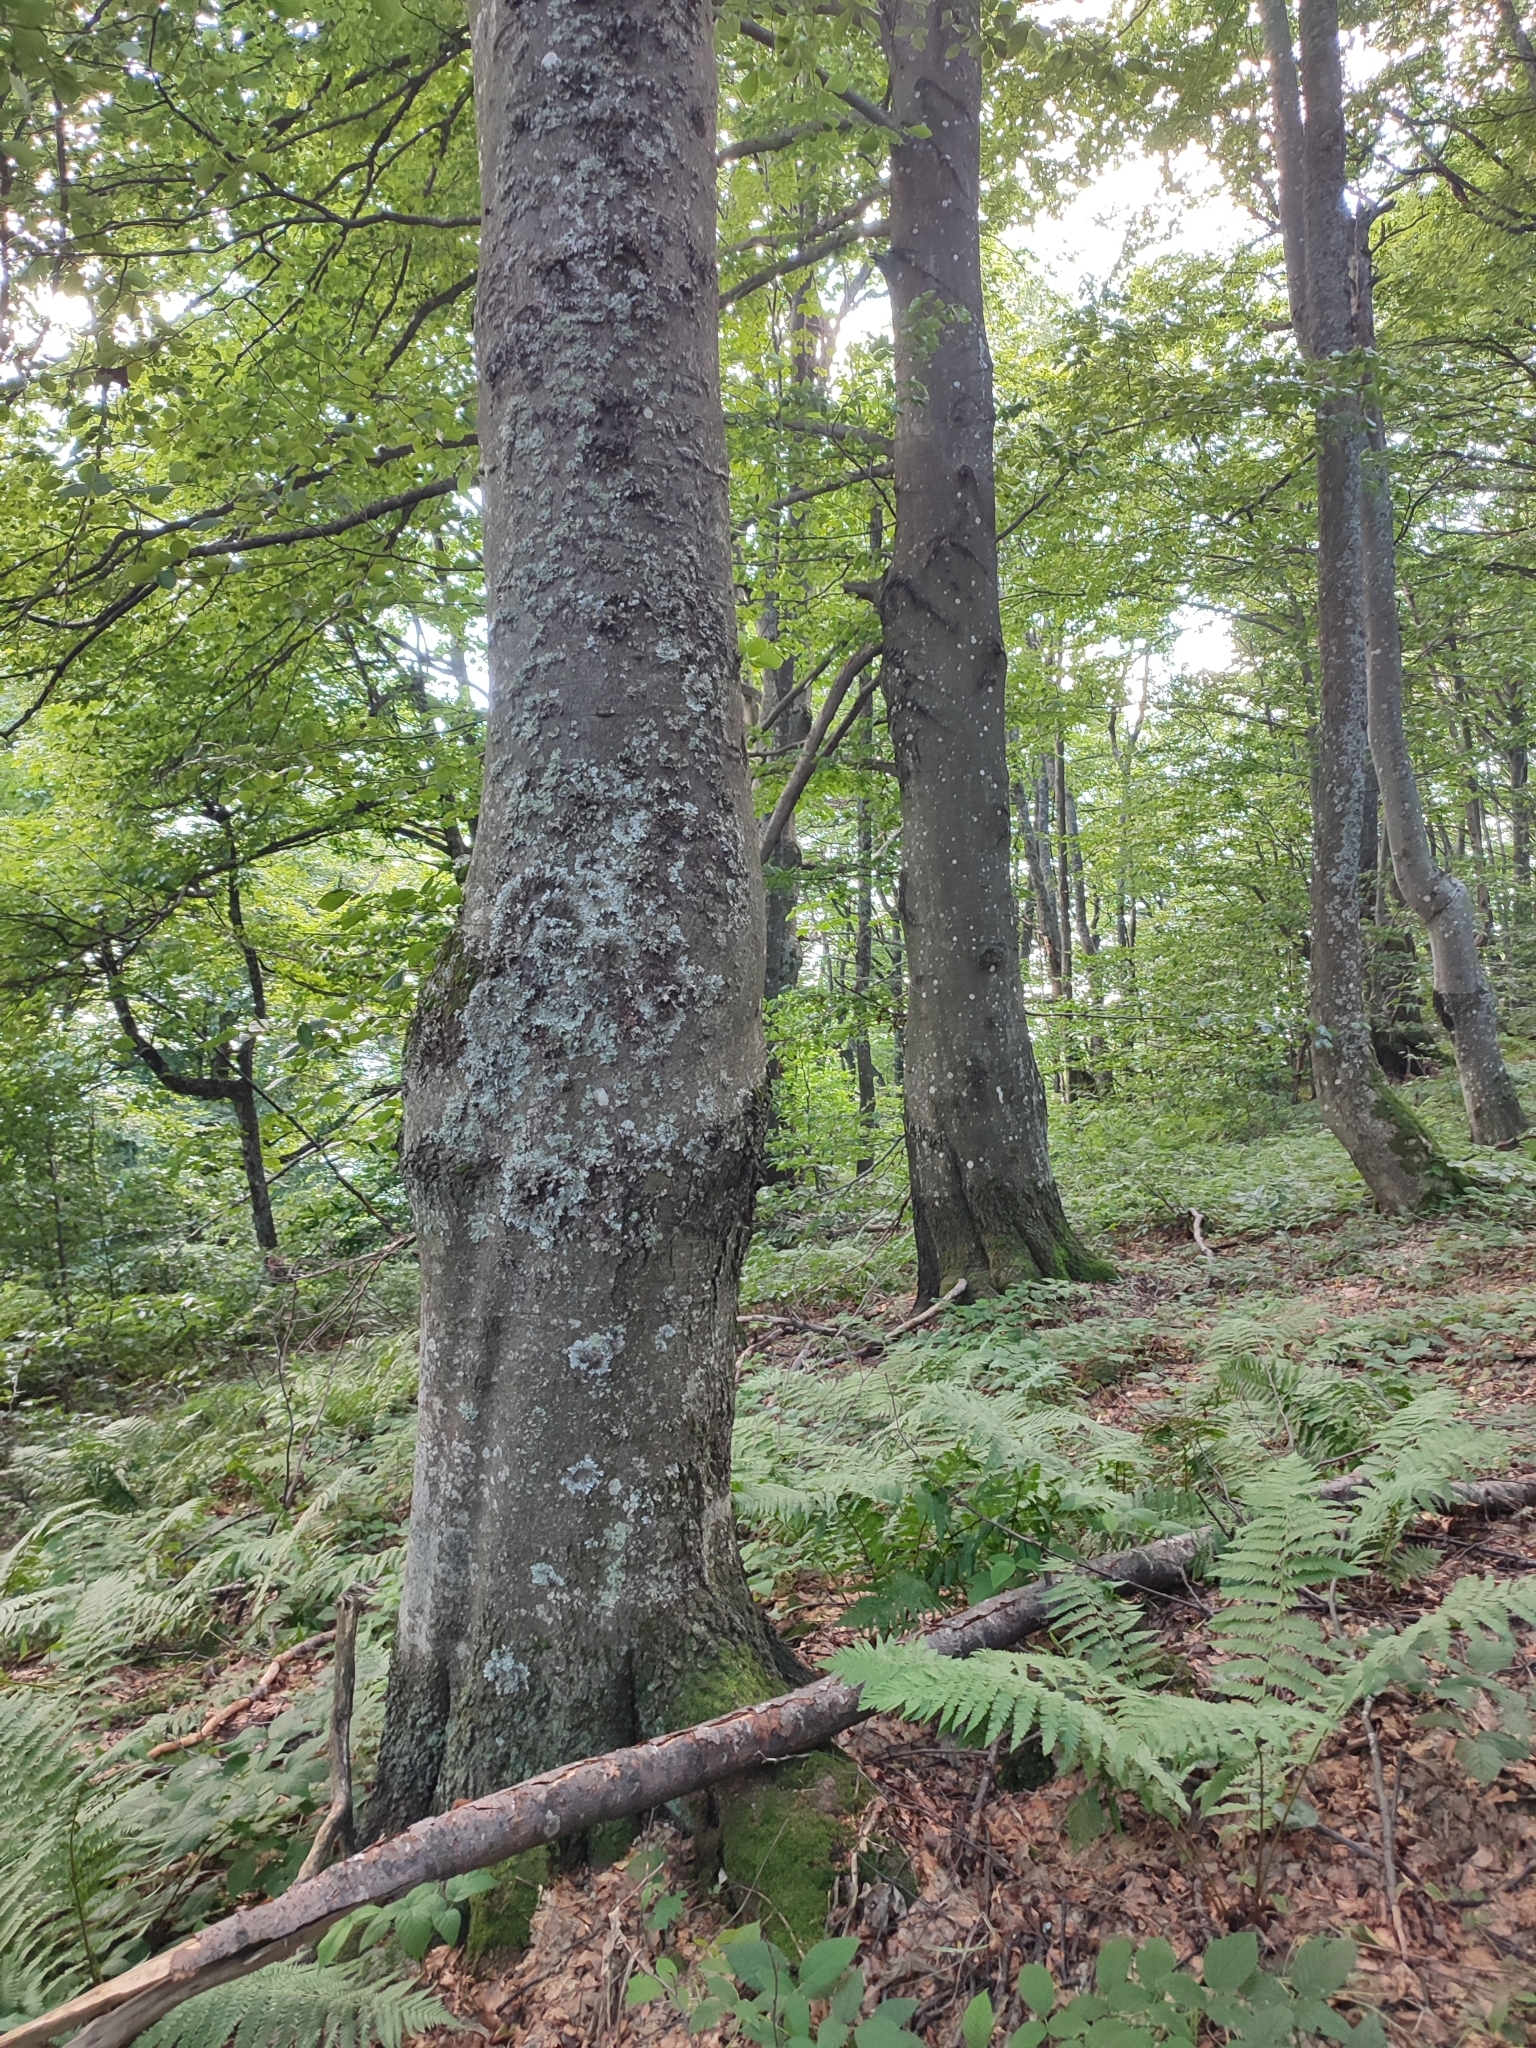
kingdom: Plantae
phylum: Tracheophyta
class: Magnoliopsida
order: Fagales
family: Fagaceae
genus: Fagus
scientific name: Fagus sylvatica
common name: Beech
